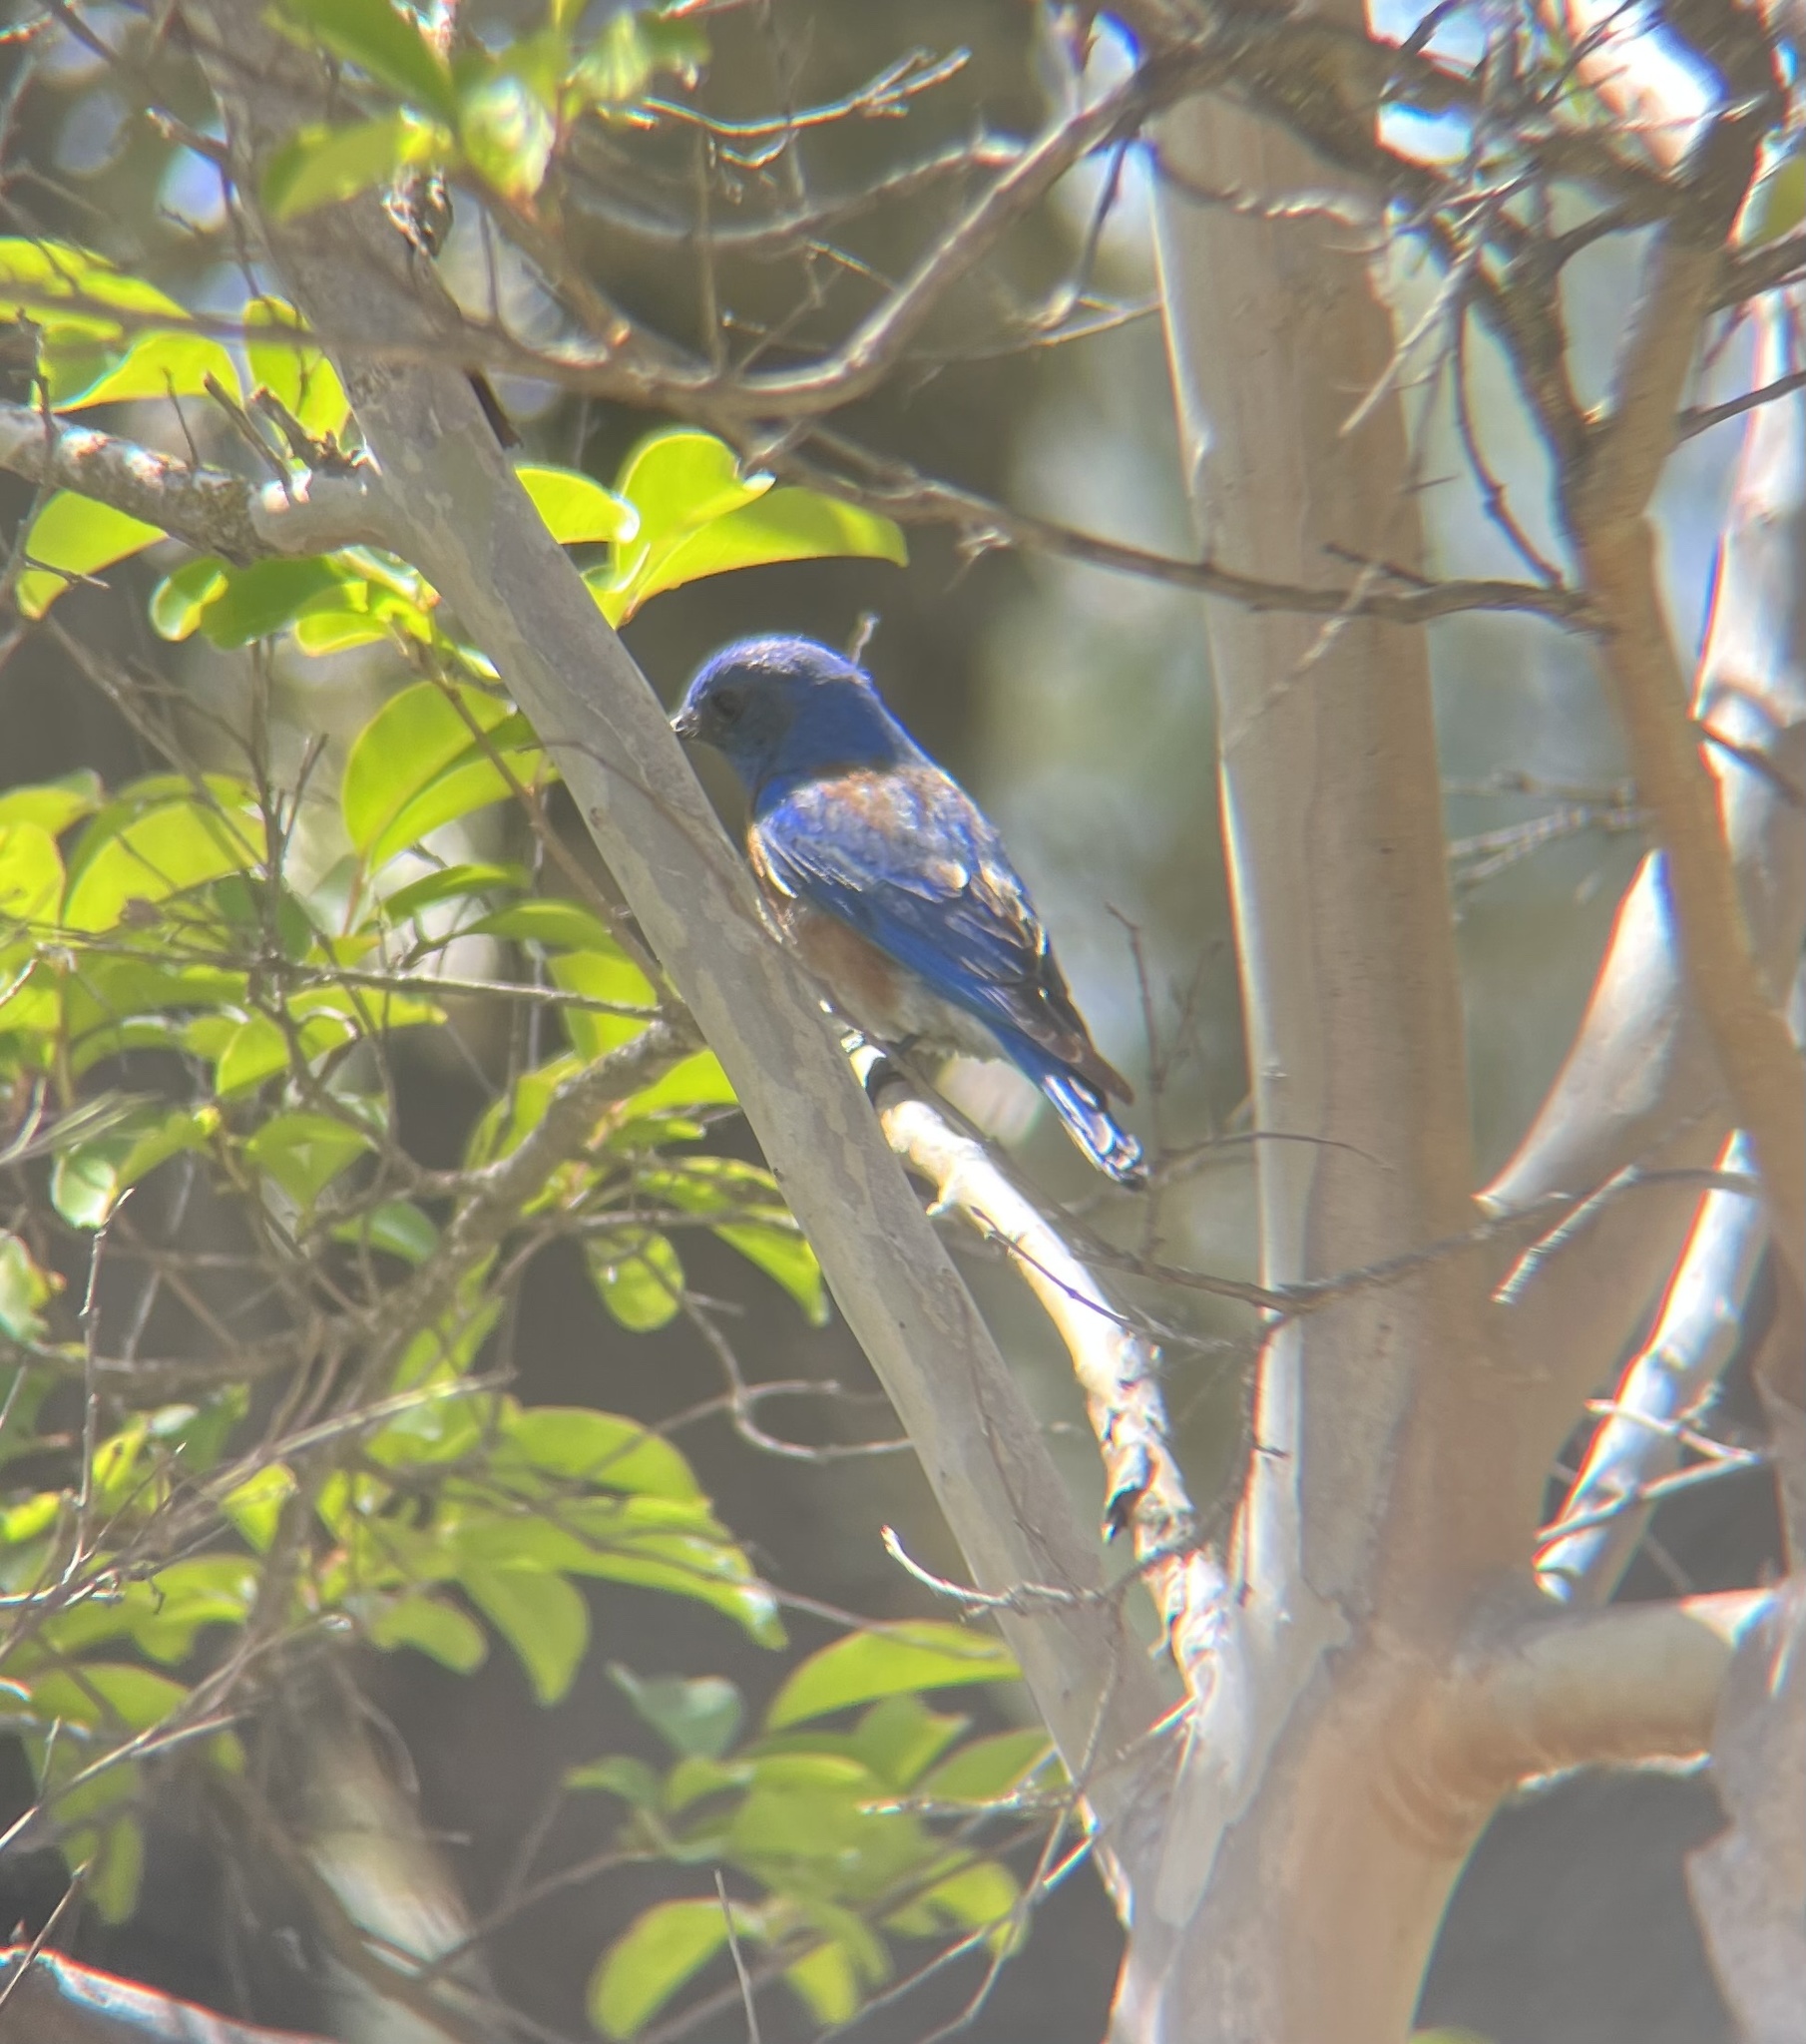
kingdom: Animalia
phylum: Chordata
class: Aves
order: Passeriformes
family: Turdidae
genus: Sialia
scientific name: Sialia mexicana
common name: Western bluebird
